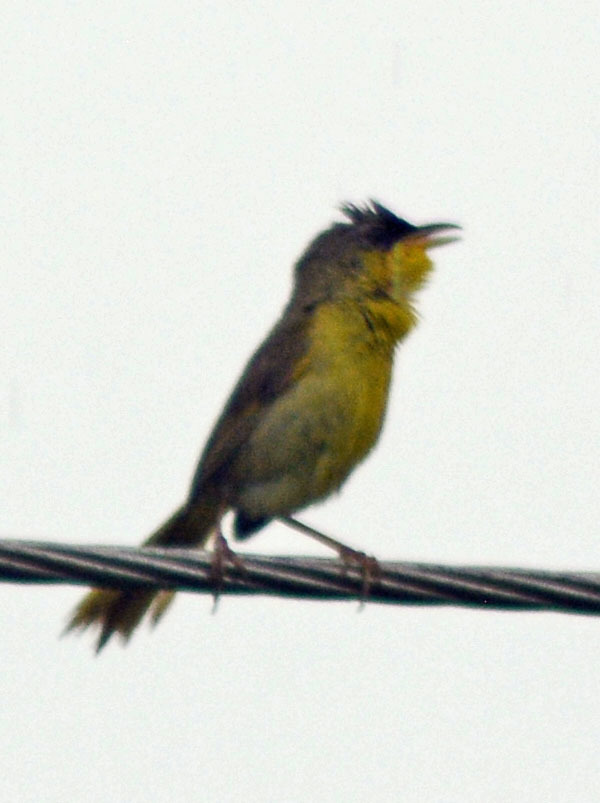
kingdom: Animalia
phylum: Chordata
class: Aves
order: Passeriformes
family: Parulidae
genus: Geothlypis
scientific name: Geothlypis poliocephala
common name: Gray-crowned yellowthroat
